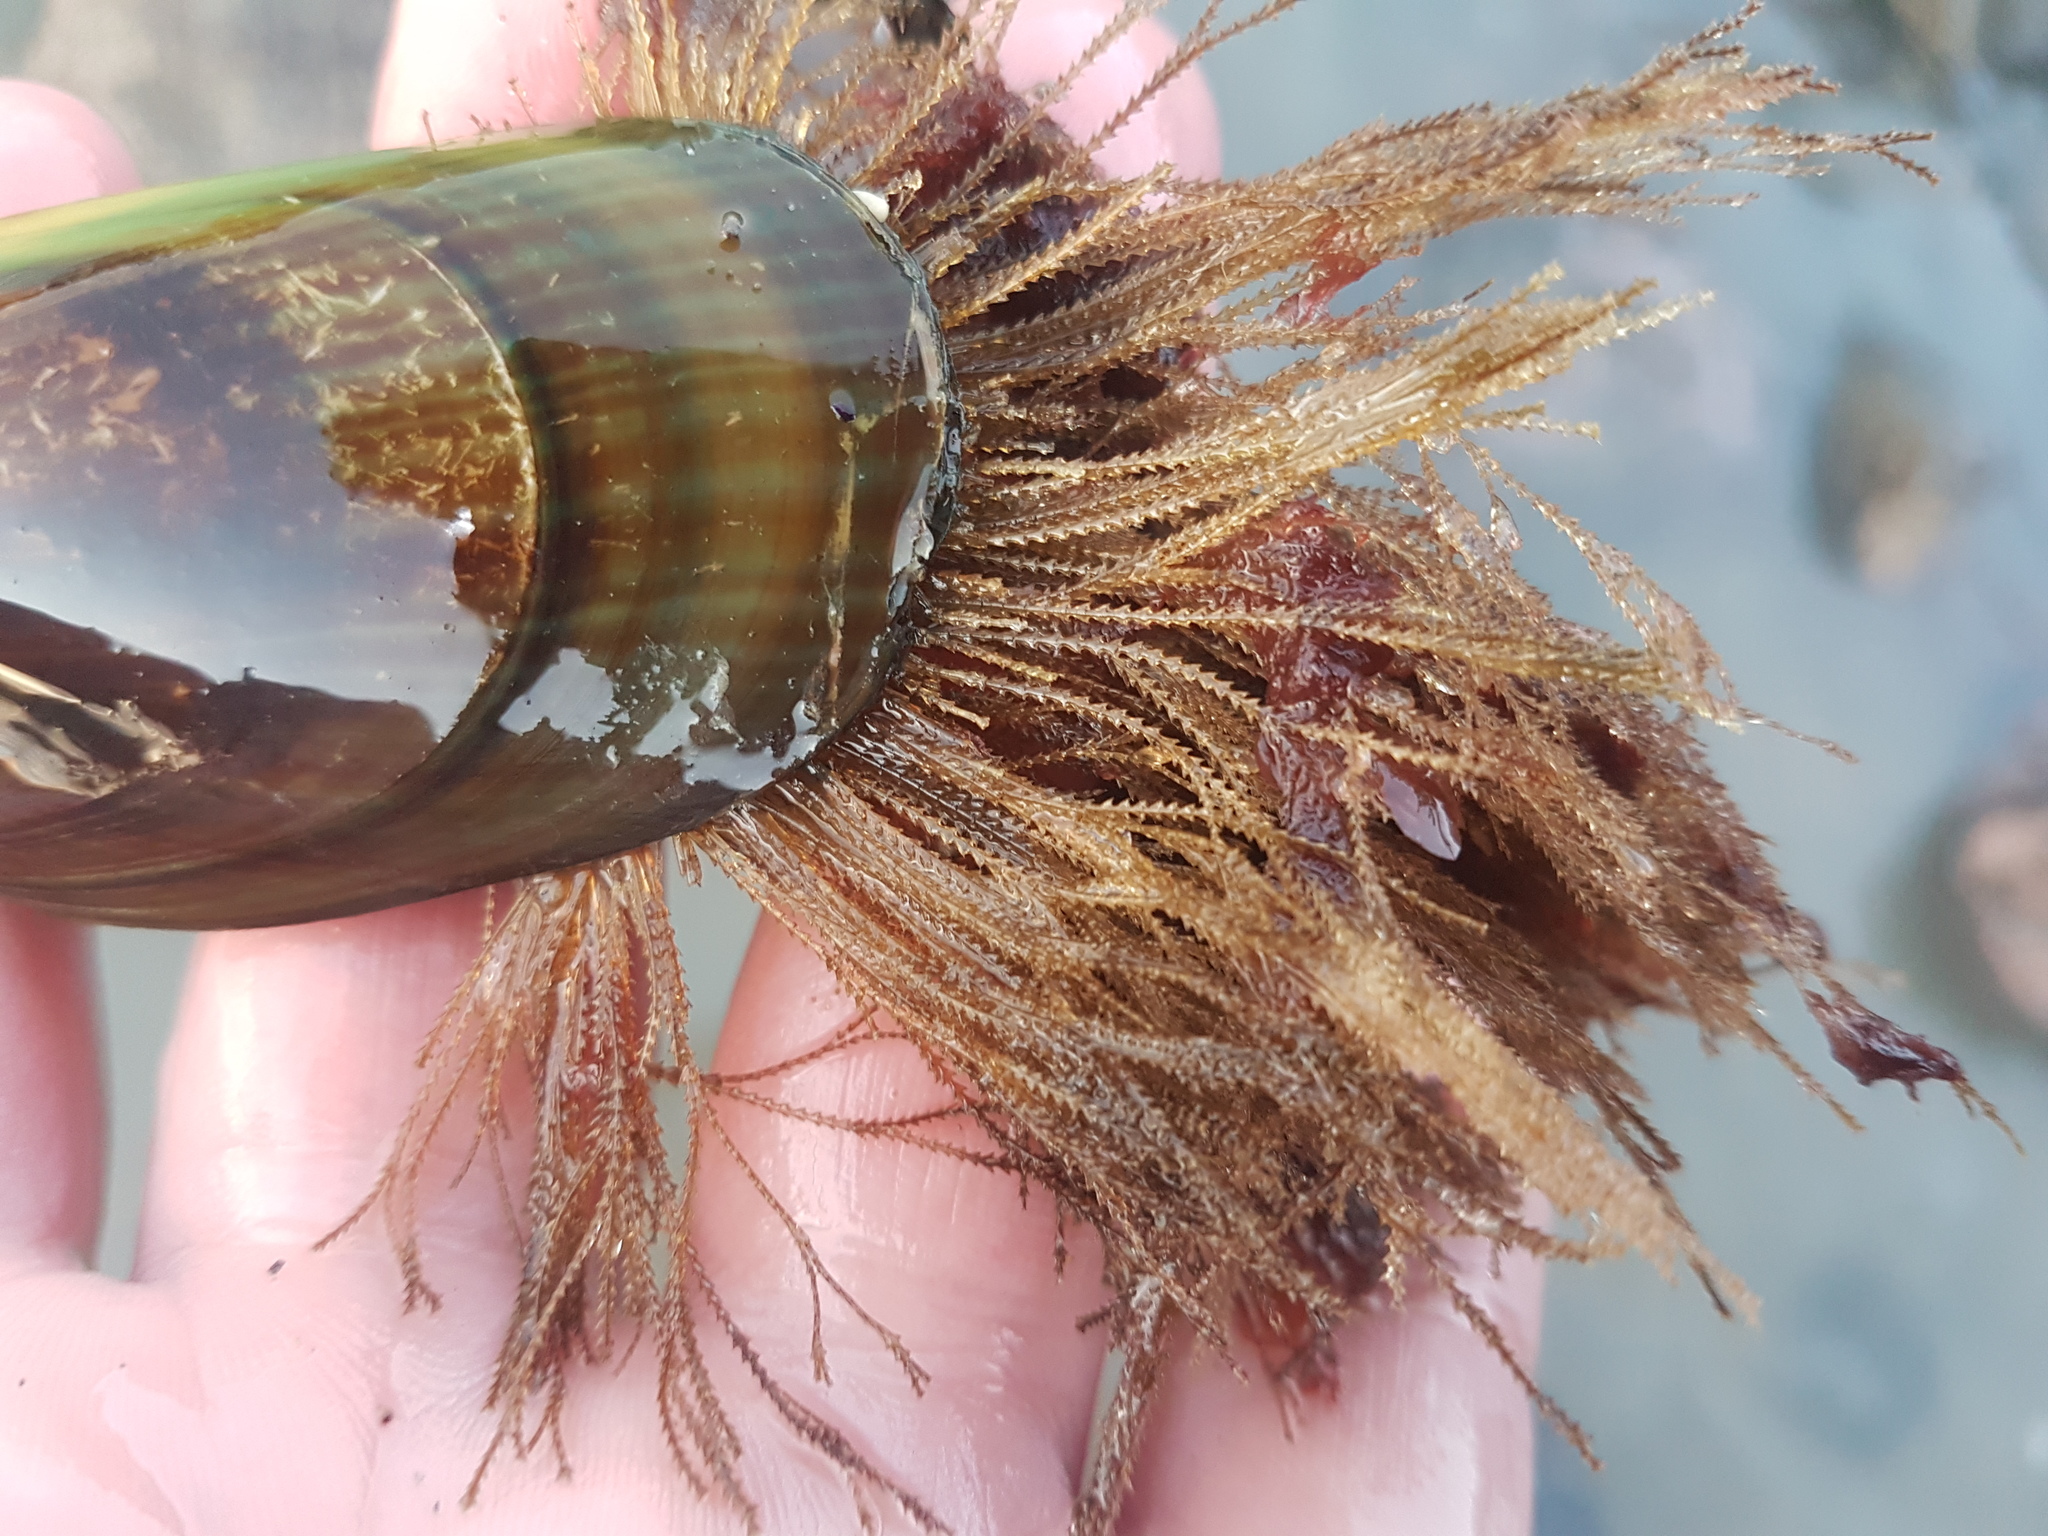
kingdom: Animalia
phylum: Cnidaria
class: Hydrozoa
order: Leptothecata
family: Sertulariidae
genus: Amphisbetia
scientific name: Amphisbetia bispinosa
